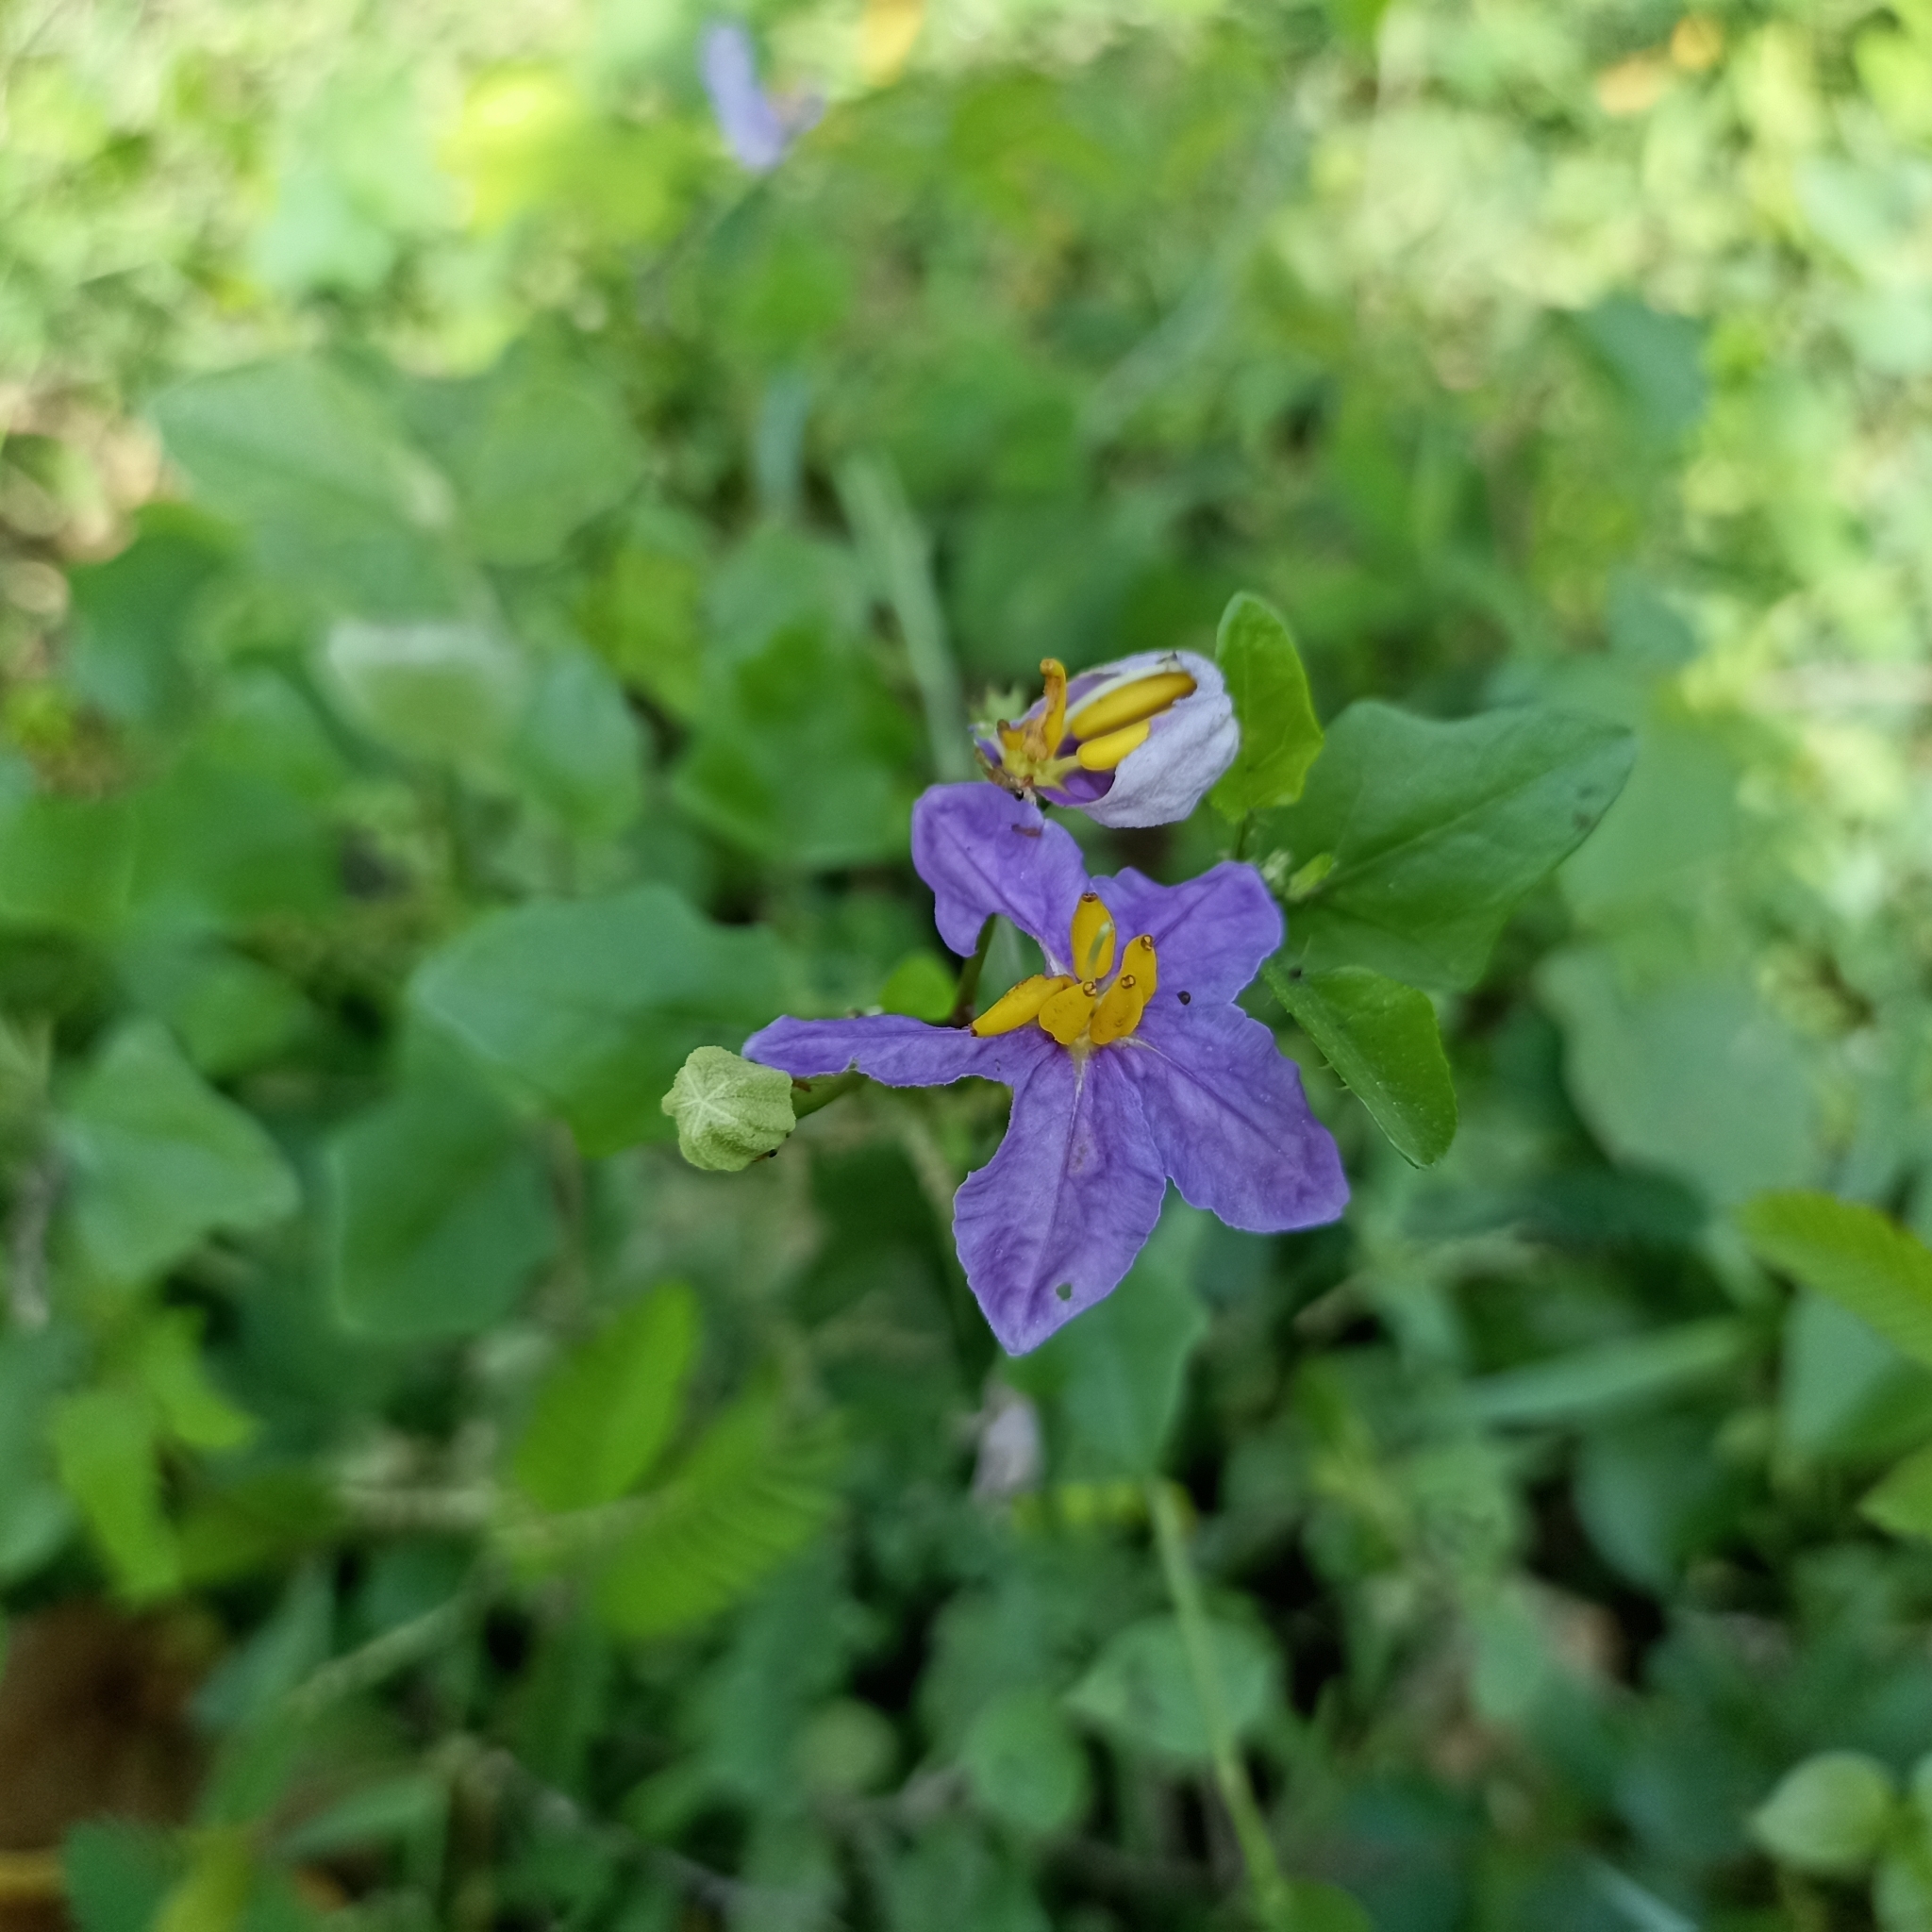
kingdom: Plantae
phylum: Tracheophyta
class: Magnoliopsida
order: Solanales
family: Solanaceae
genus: Solanum
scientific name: Solanum trilobatum
